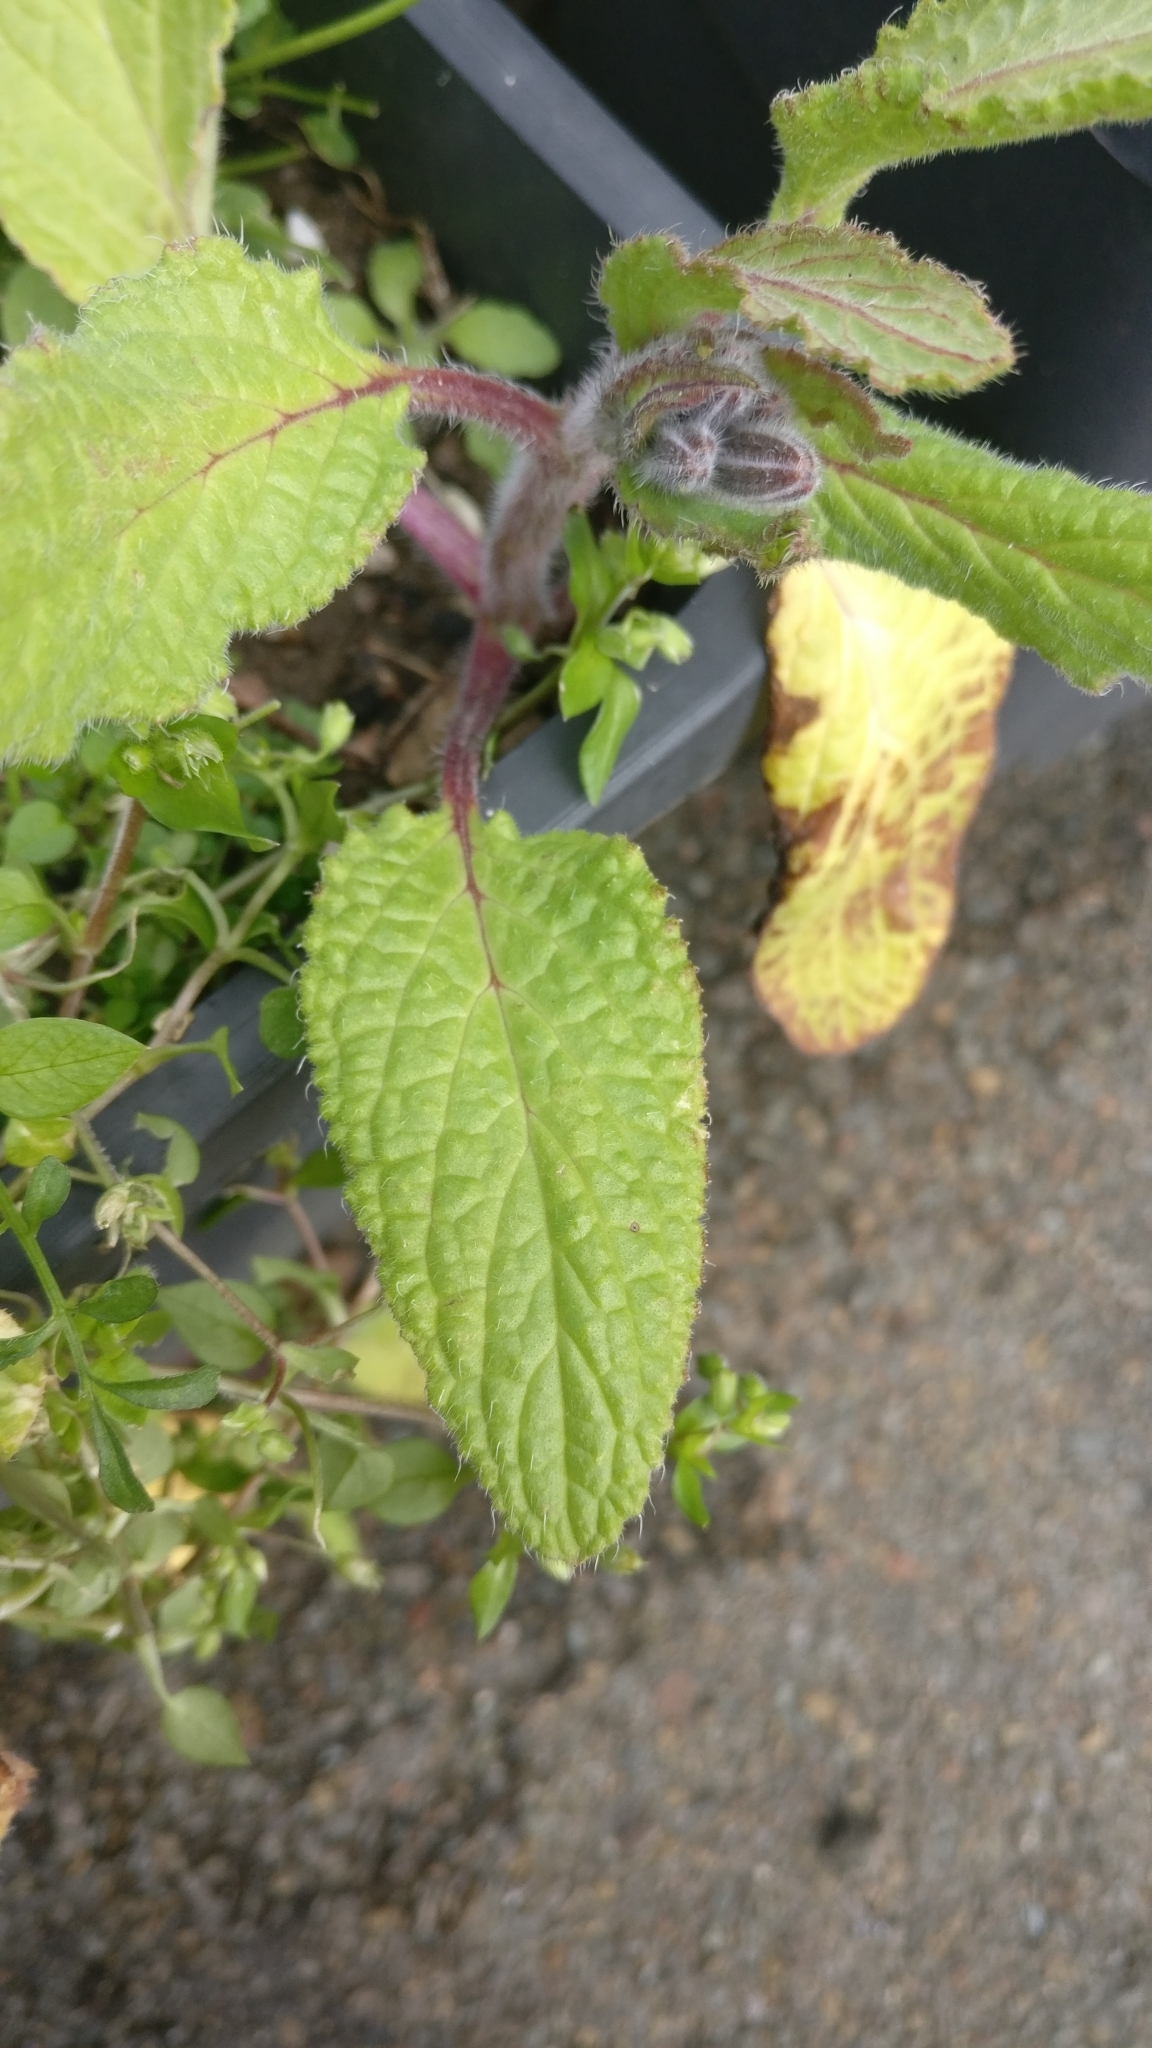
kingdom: Plantae
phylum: Tracheophyta
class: Magnoliopsida
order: Boraginales
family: Boraginaceae
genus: Borago
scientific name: Borago officinalis
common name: Borage
